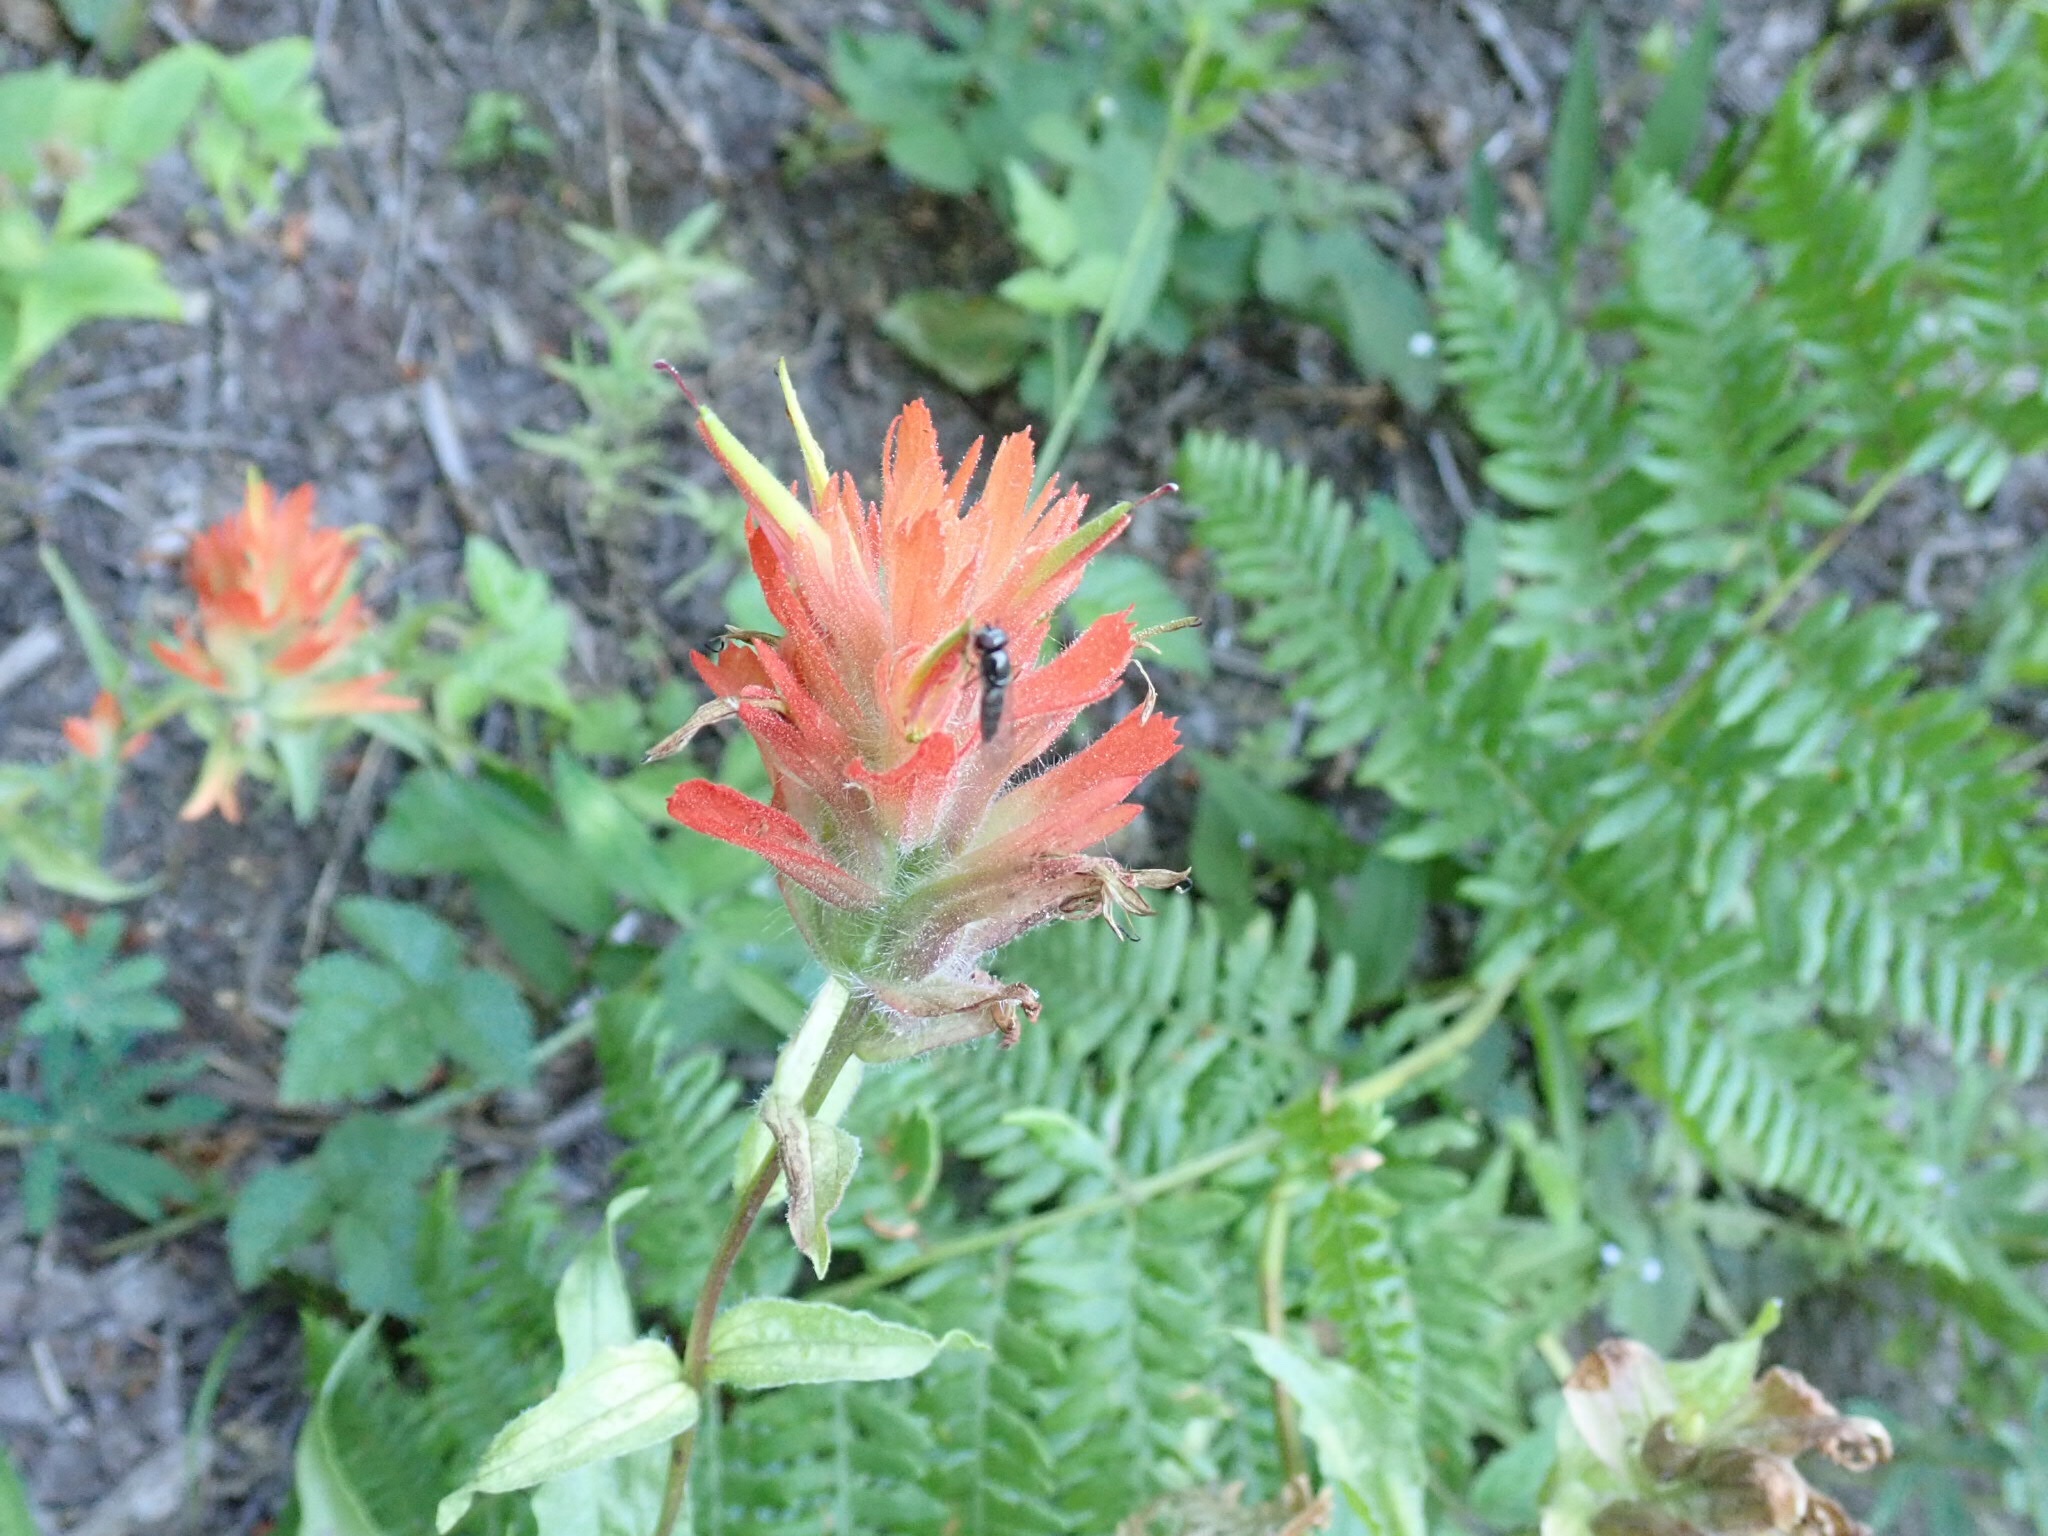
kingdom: Plantae
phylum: Tracheophyta
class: Magnoliopsida
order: Lamiales
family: Orobanchaceae
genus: Castilleja
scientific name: Castilleja miniata
